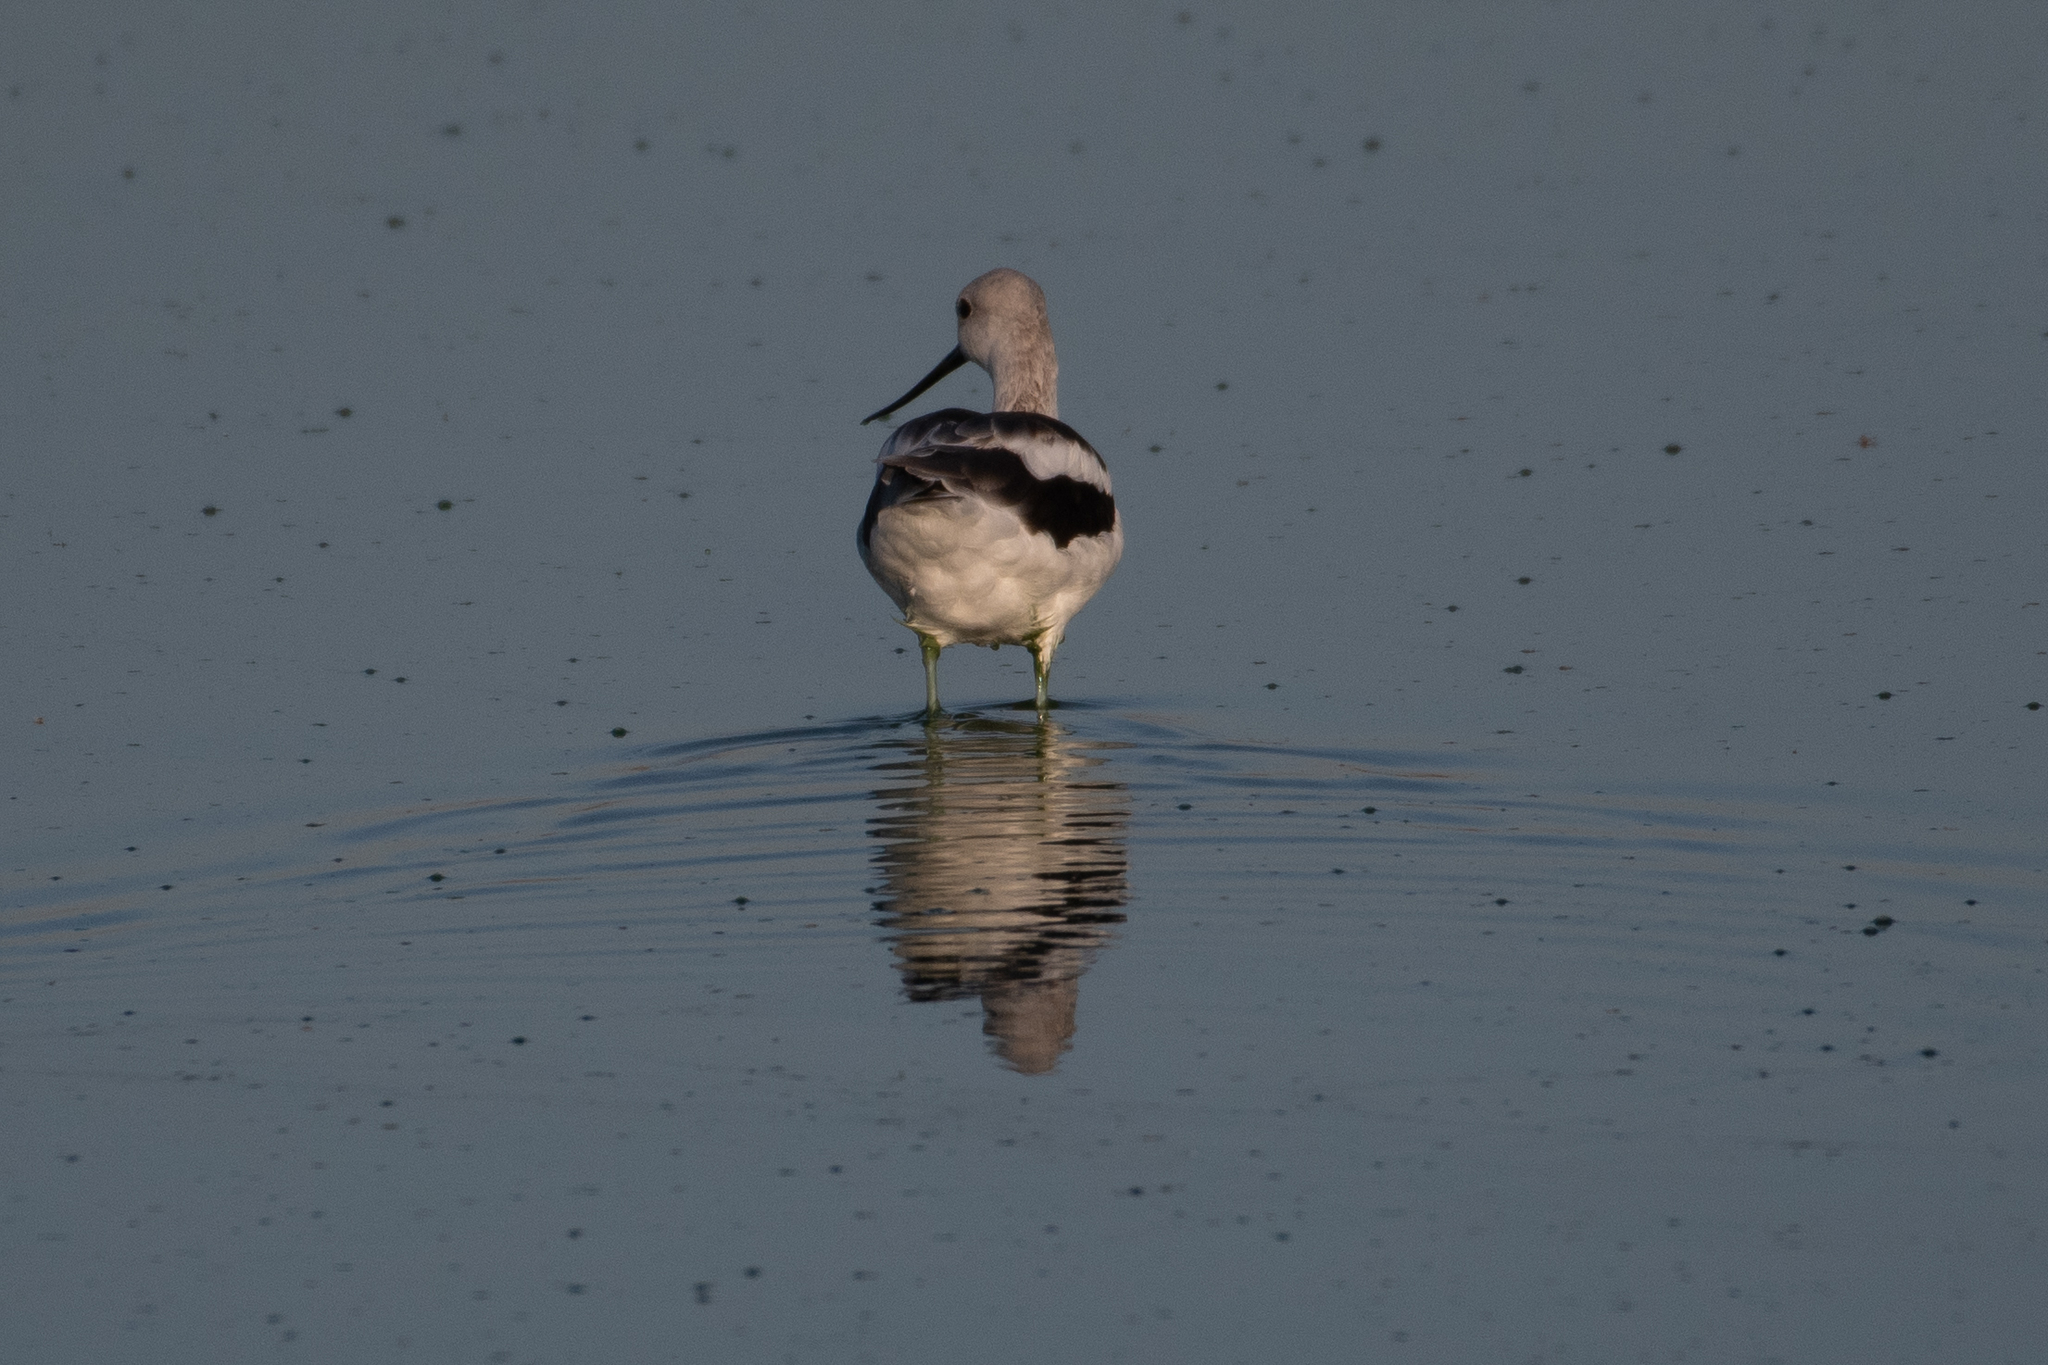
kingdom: Animalia
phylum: Chordata
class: Aves
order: Charadriiformes
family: Recurvirostridae
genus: Recurvirostra
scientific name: Recurvirostra americana
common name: American avocet
